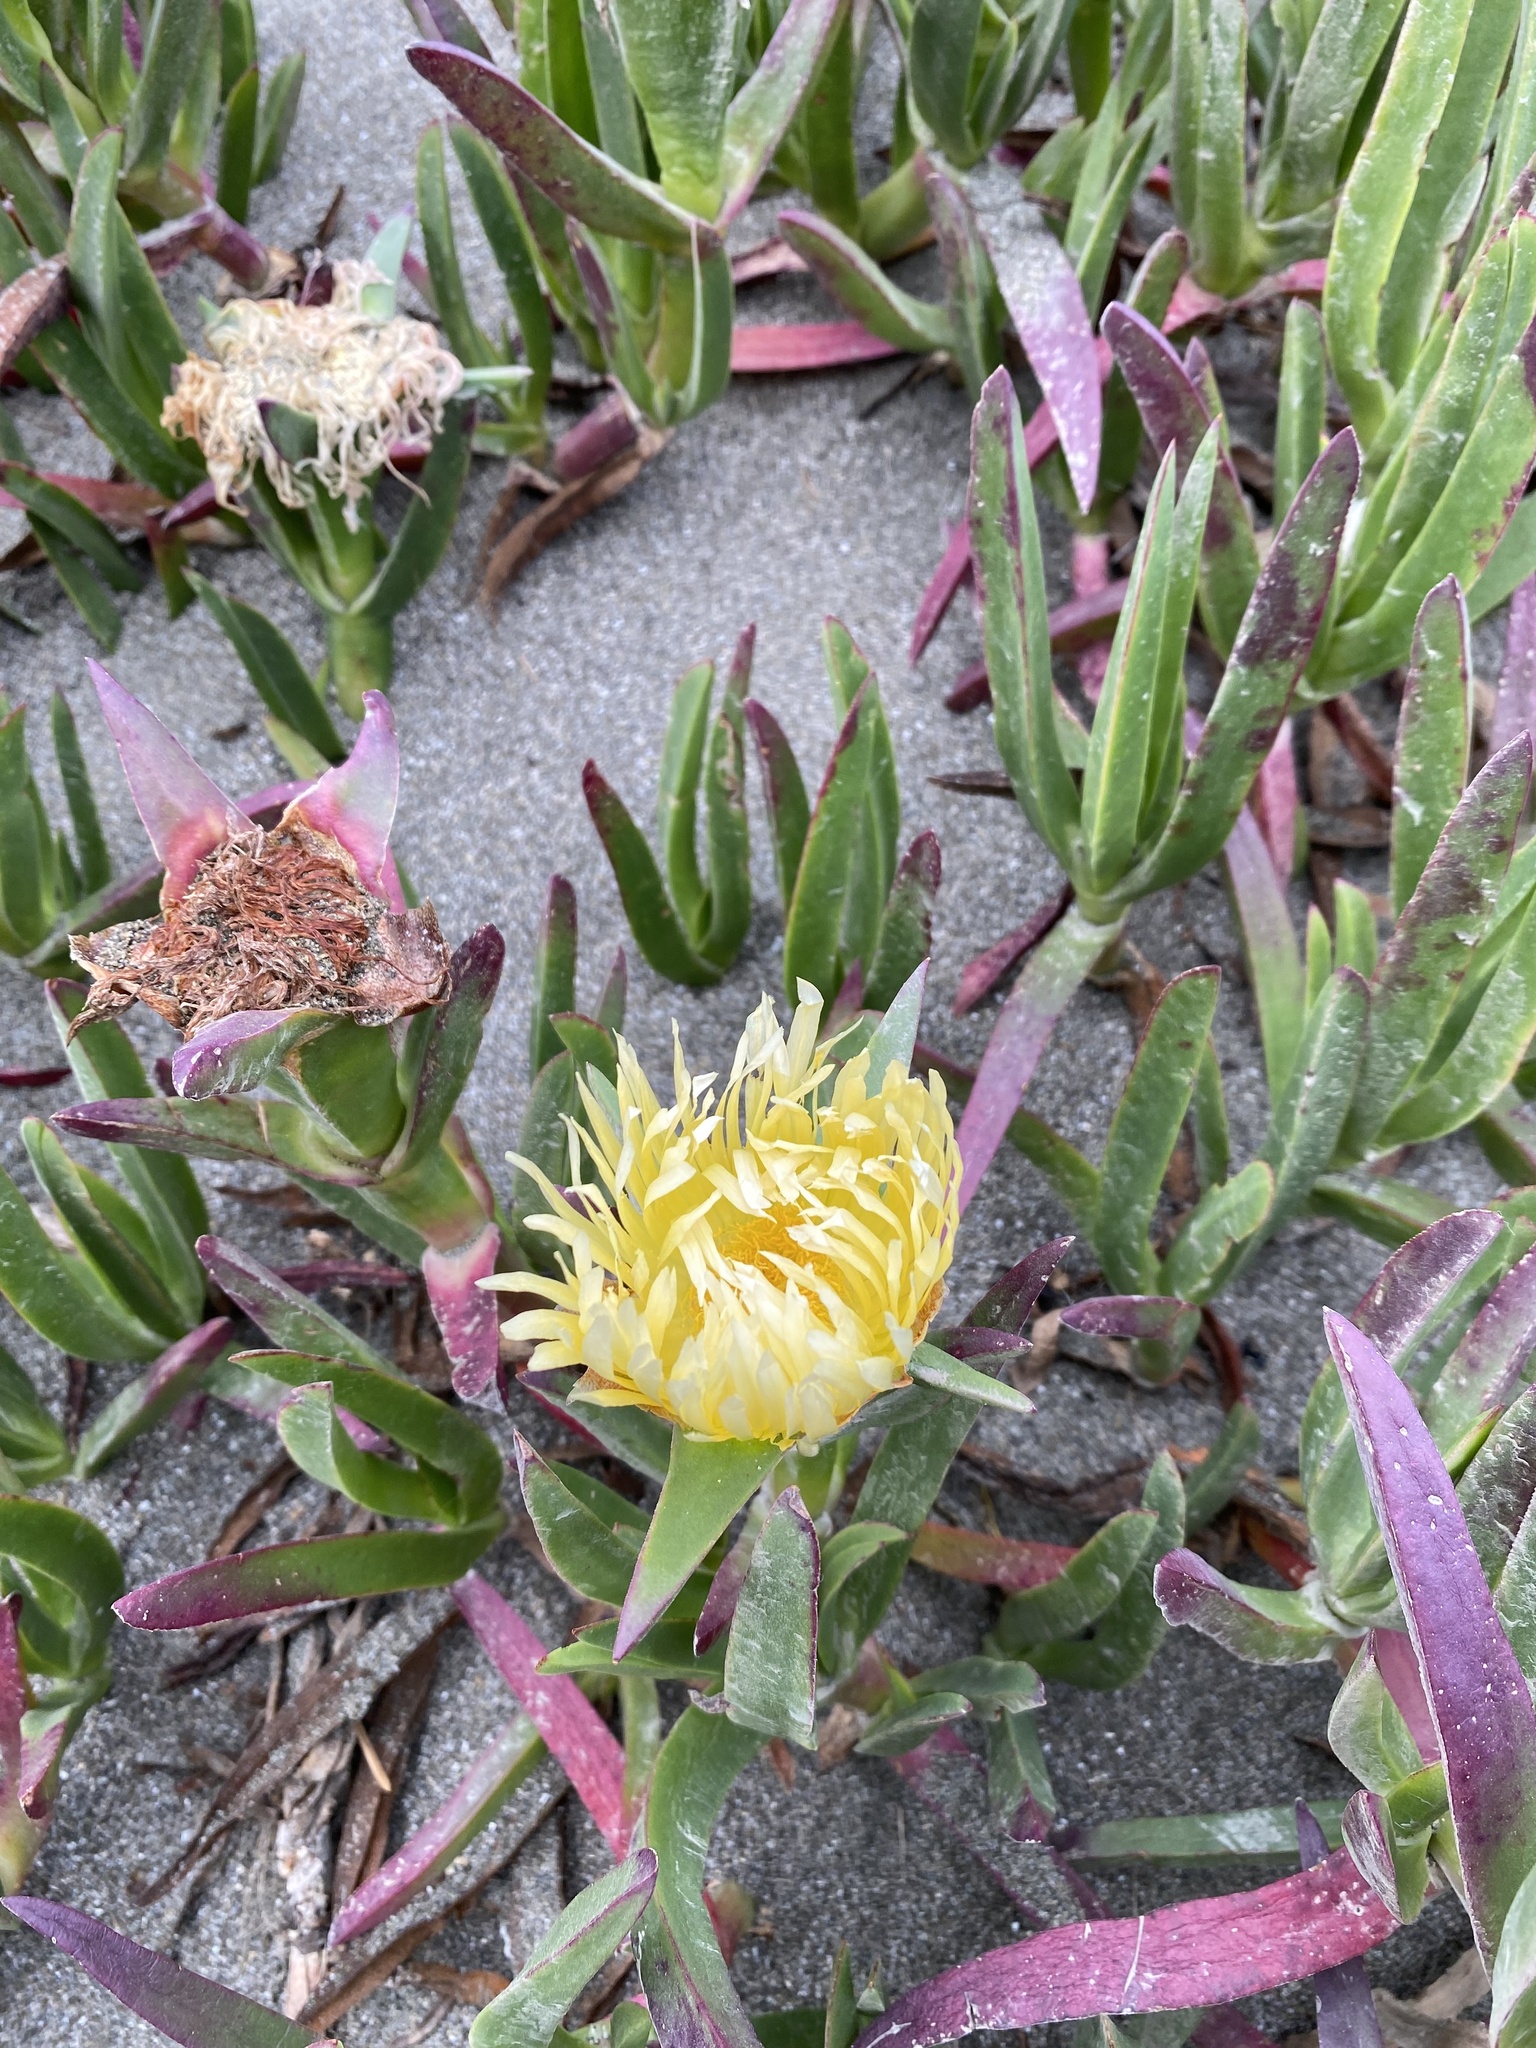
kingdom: Plantae
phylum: Tracheophyta
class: Magnoliopsida
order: Caryophyllales
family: Aizoaceae
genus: Carpobrotus
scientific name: Carpobrotus edulis
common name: Hottentot-fig
